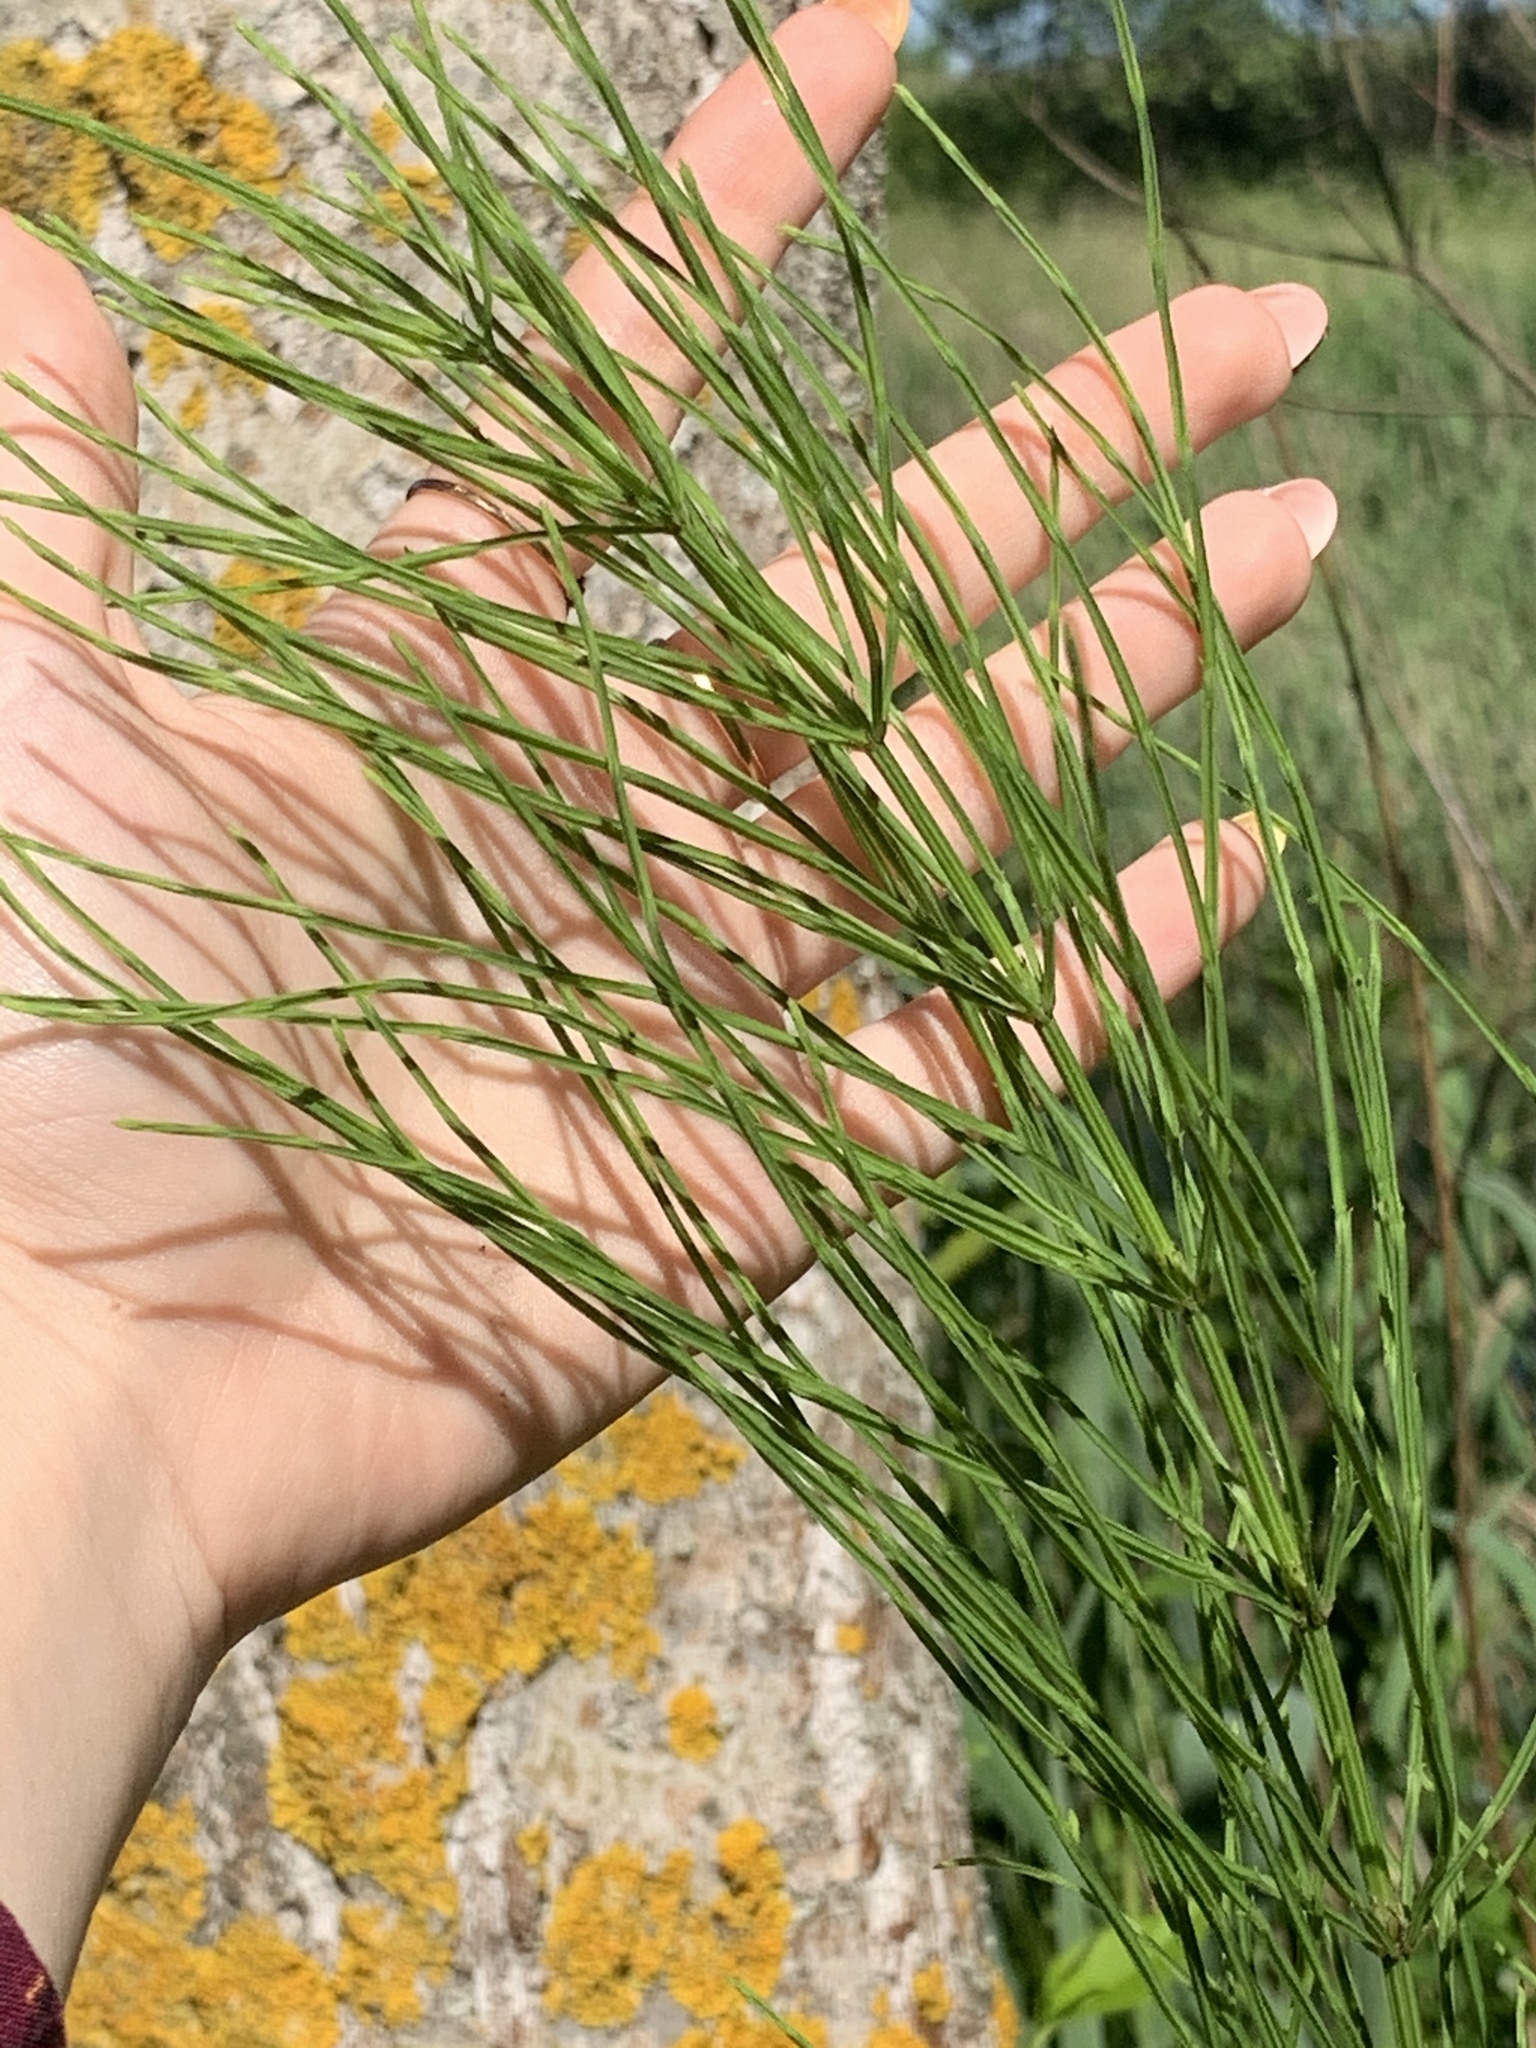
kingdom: Plantae
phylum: Tracheophyta
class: Polypodiopsida
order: Equisetales
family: Equisetaceae
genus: Equisetum
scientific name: Equisetum arvense
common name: Field horsetail
